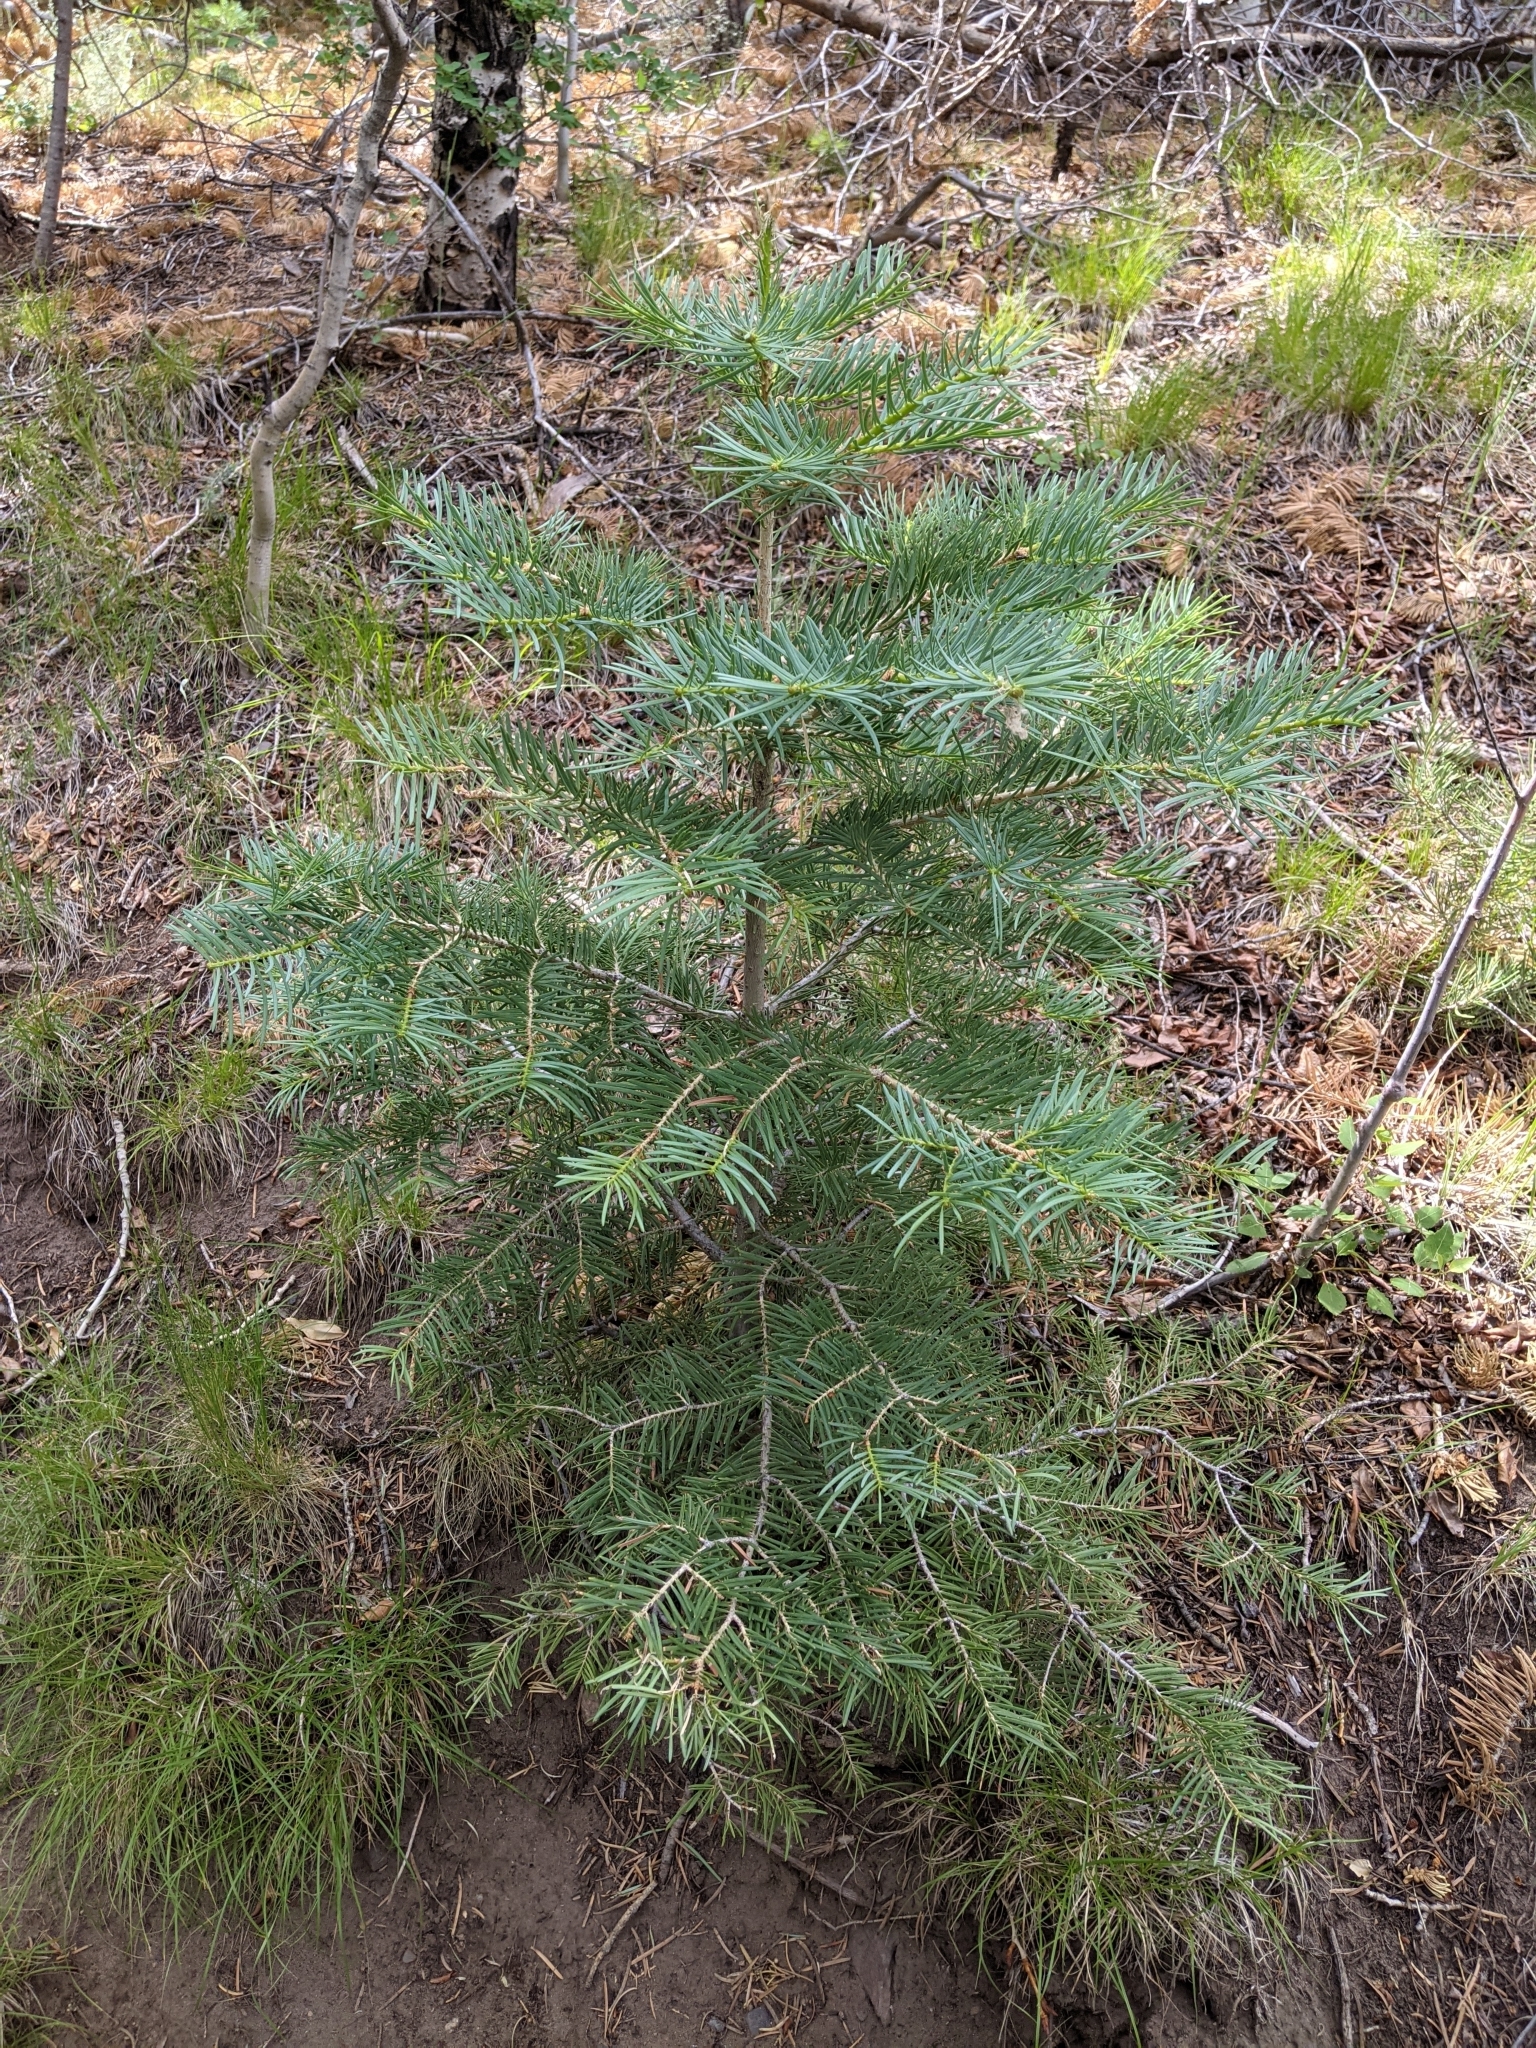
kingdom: Plantae
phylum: Tracheophyta
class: Pinopsida
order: Pinales
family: Pinaceae
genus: Abies
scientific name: Abies concolor
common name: Colorado fir
